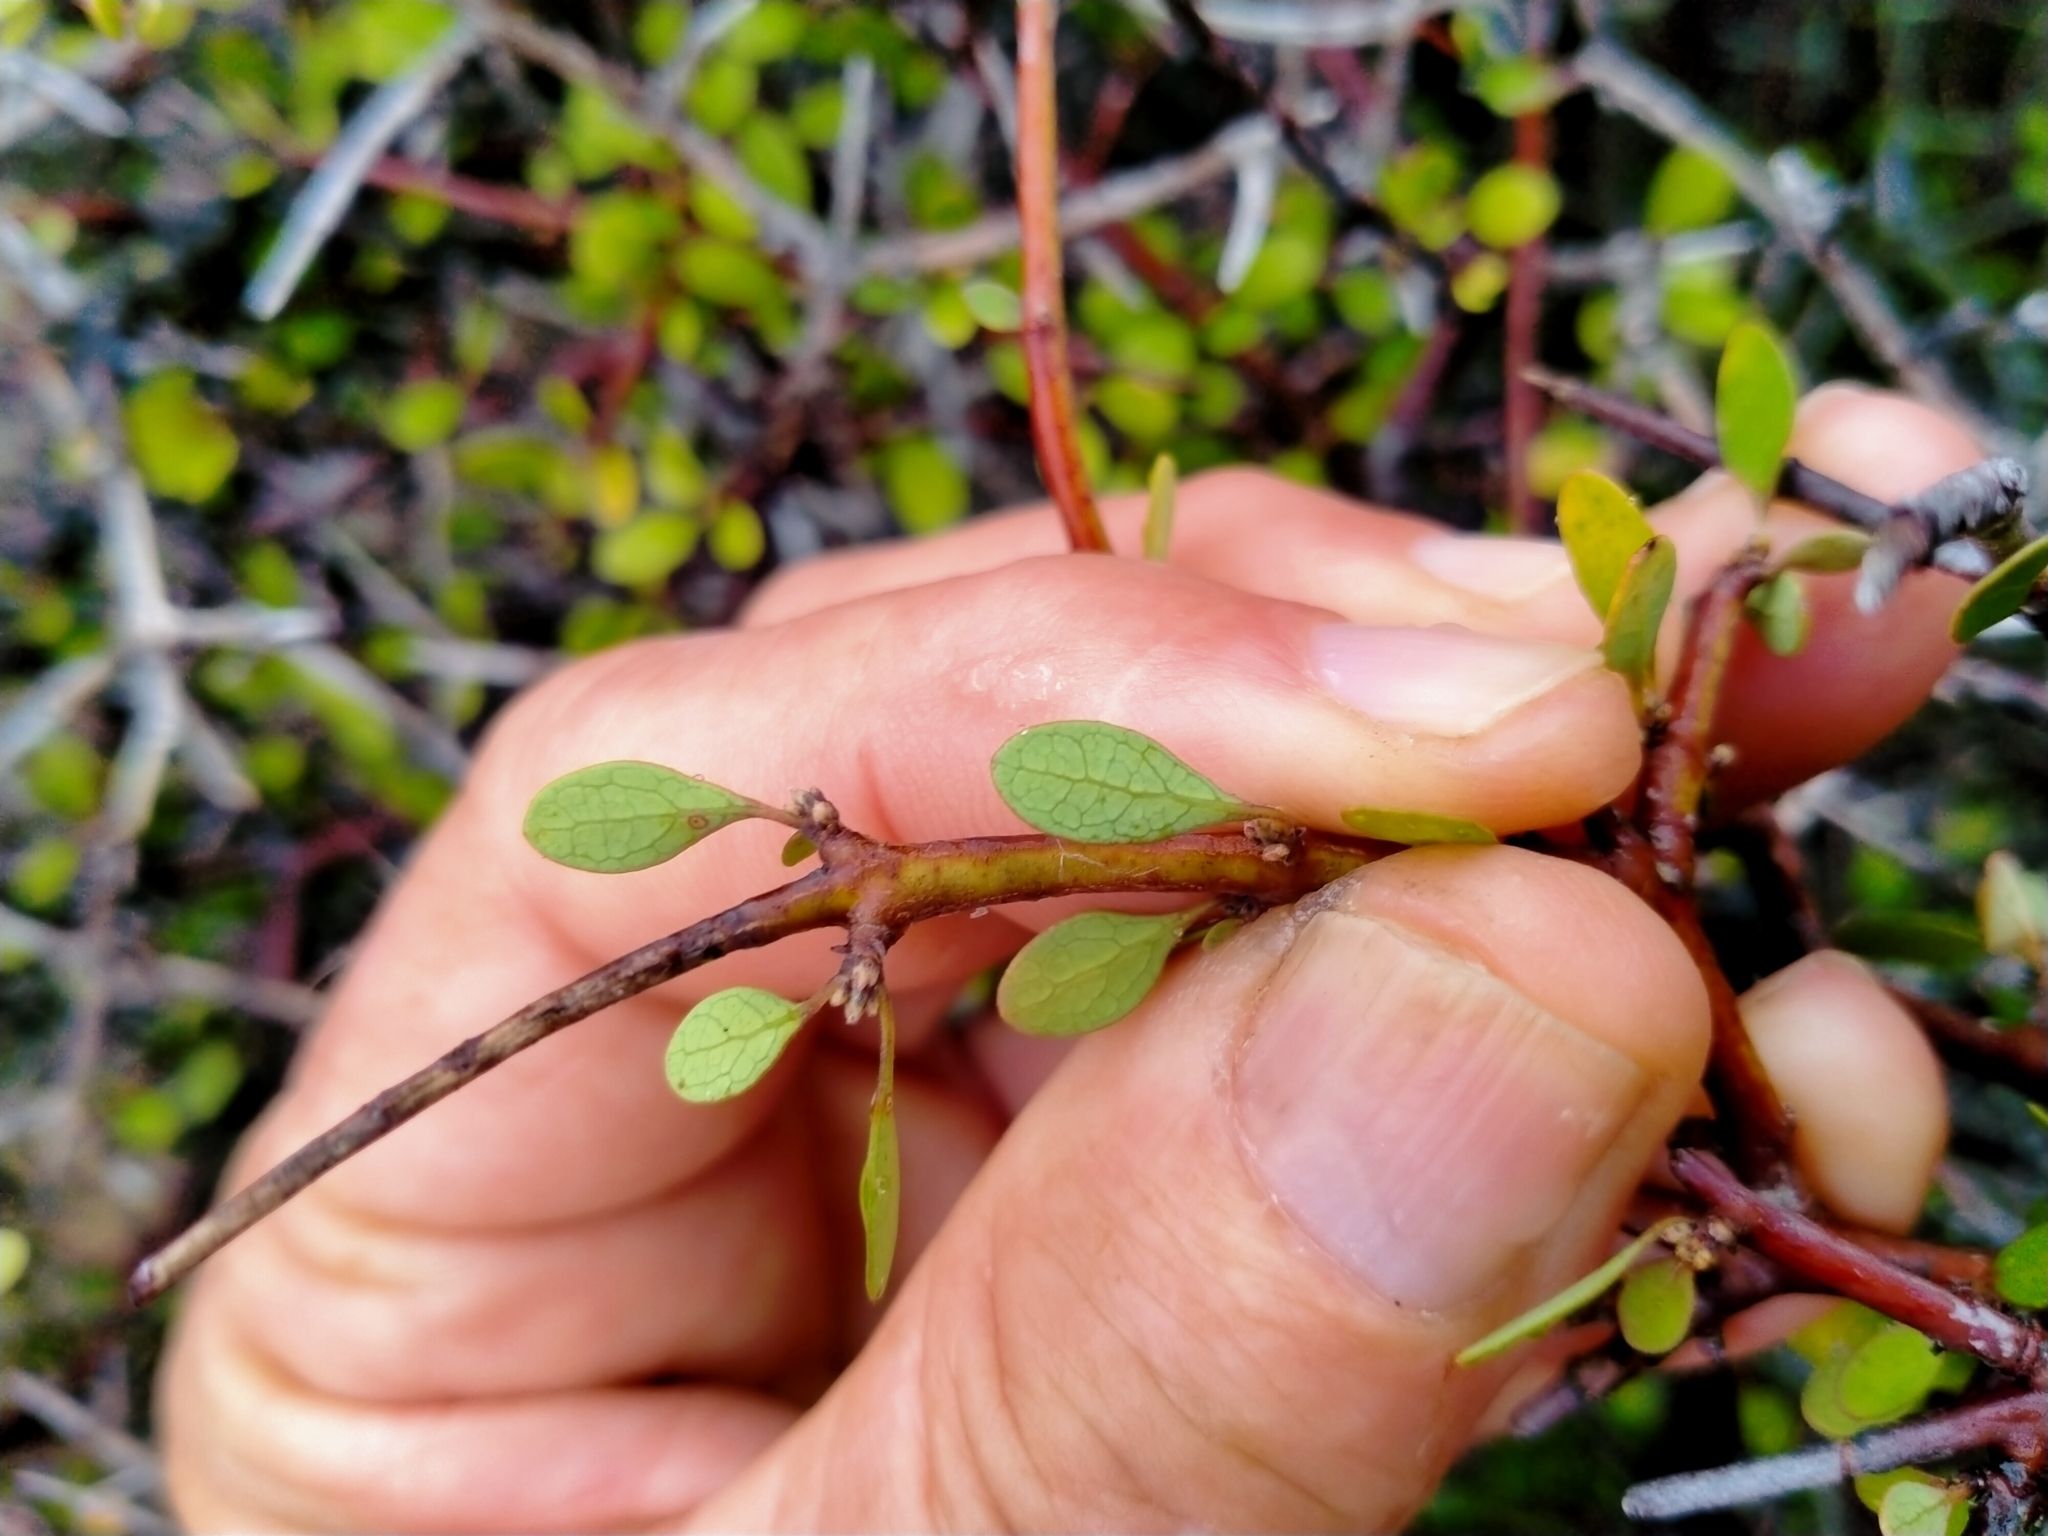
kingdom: Plantae
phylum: Tracheophyta
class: Magnoliopsida
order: Oxalidales
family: Elaeocarpaceae
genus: Aristotelia
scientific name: Aristotelia fruticosa
